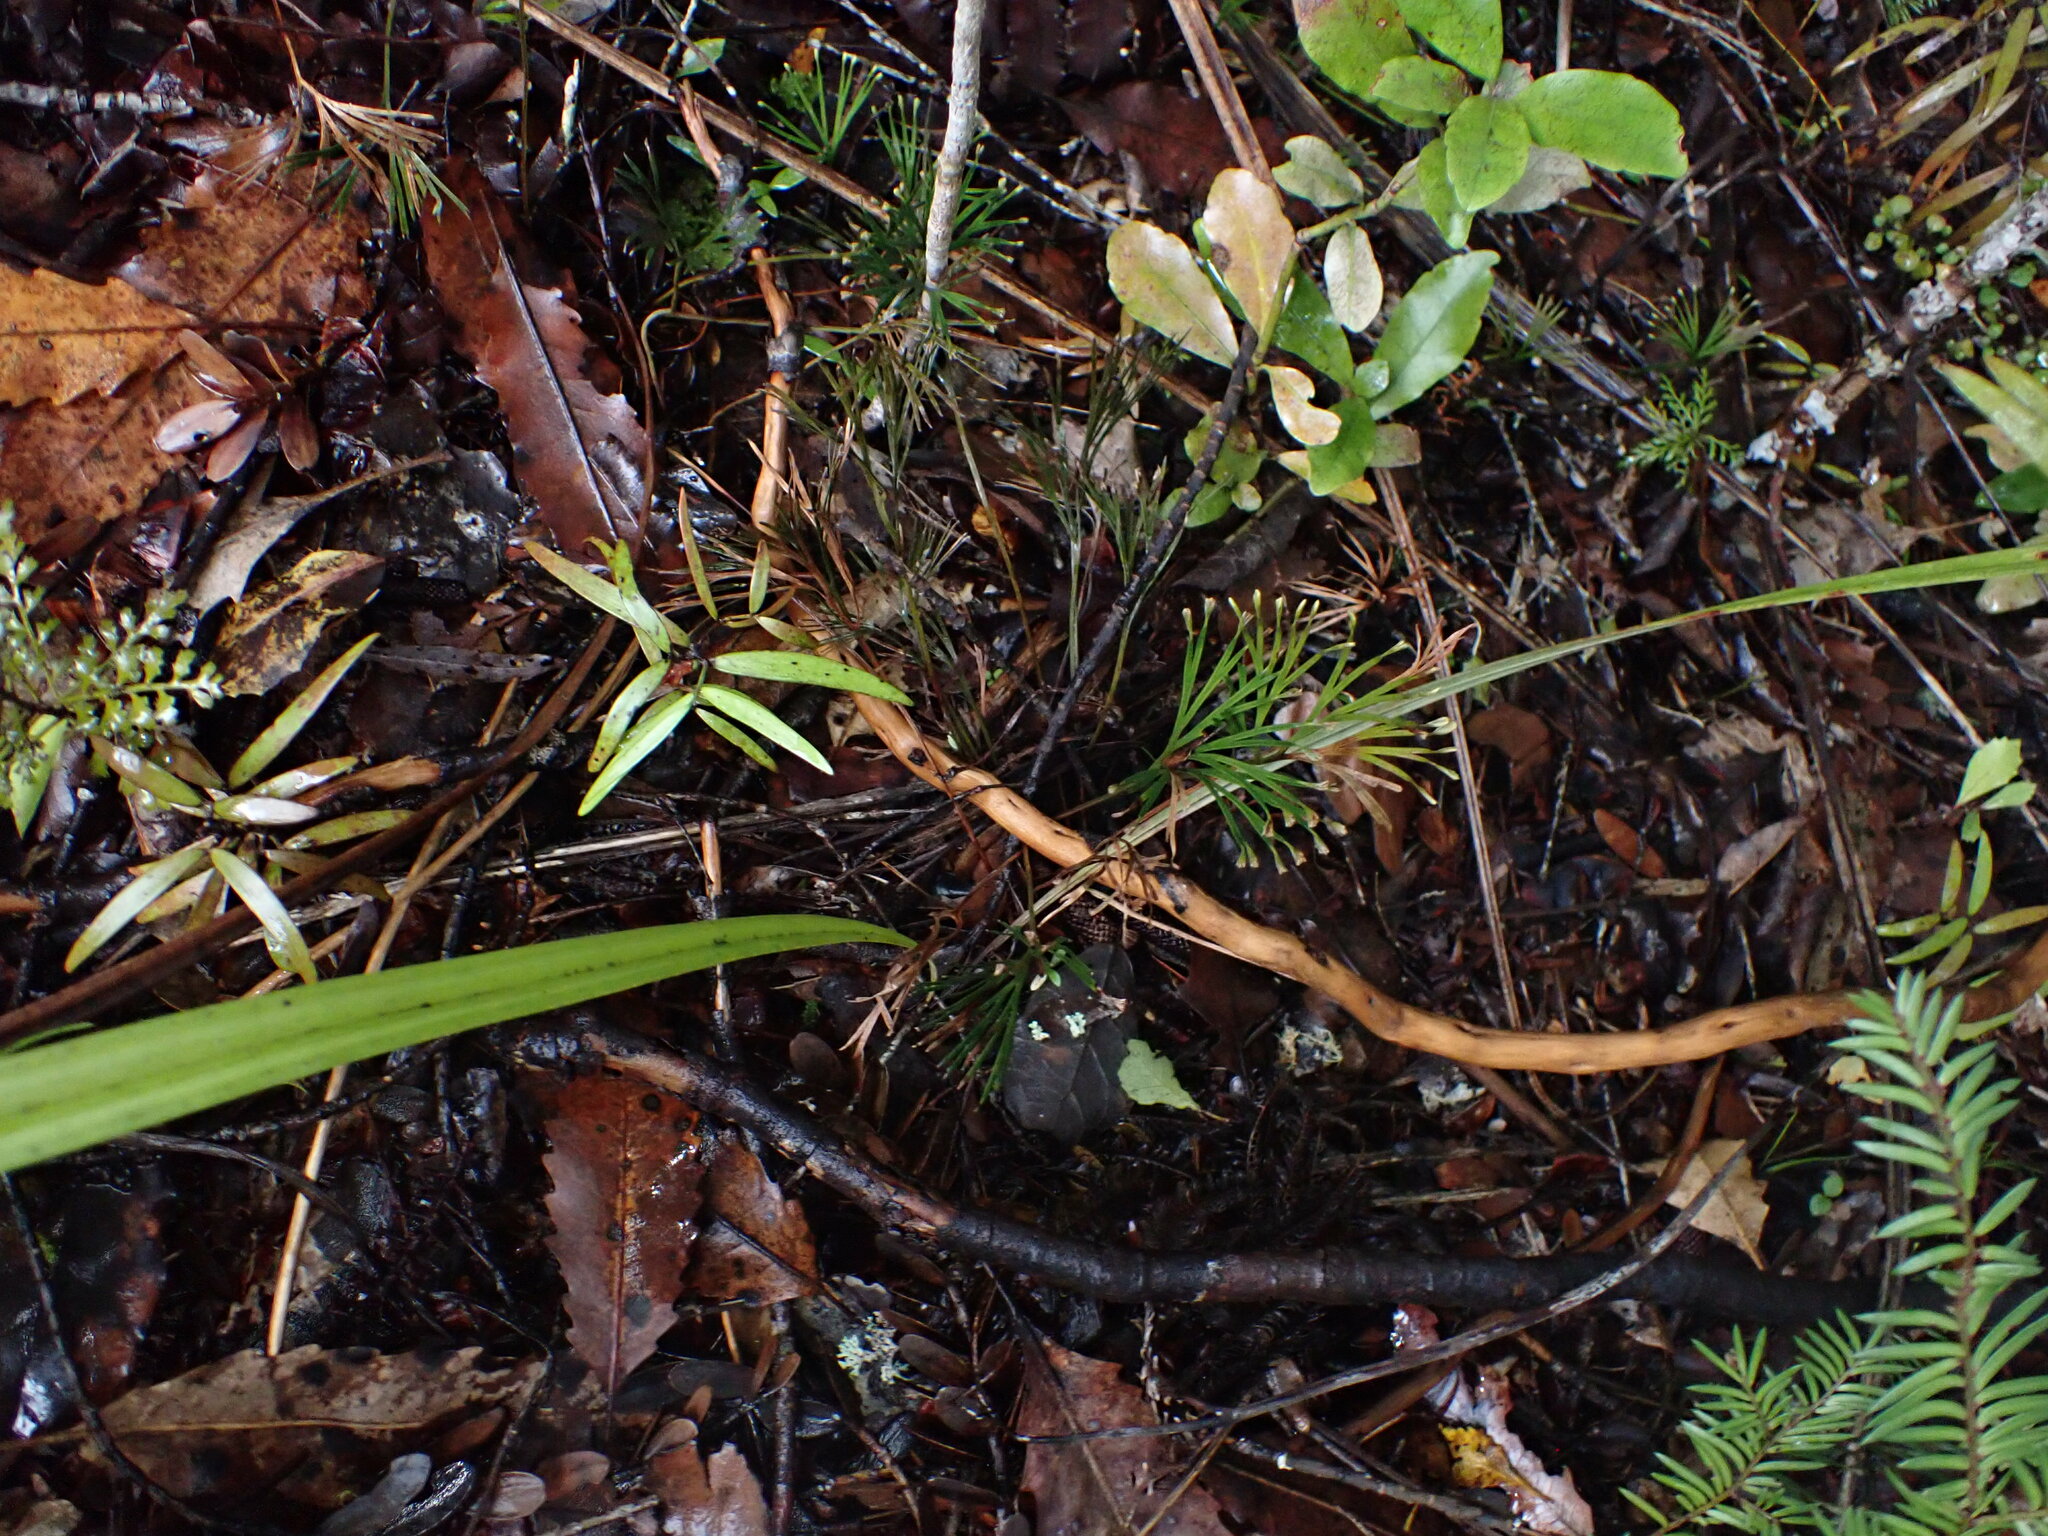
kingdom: Plantae
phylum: Tracheophyta
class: Polypodiopsida
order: Schizaeales
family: Schizaeaceae
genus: Schizaea
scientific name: Schizaea dichotoma
